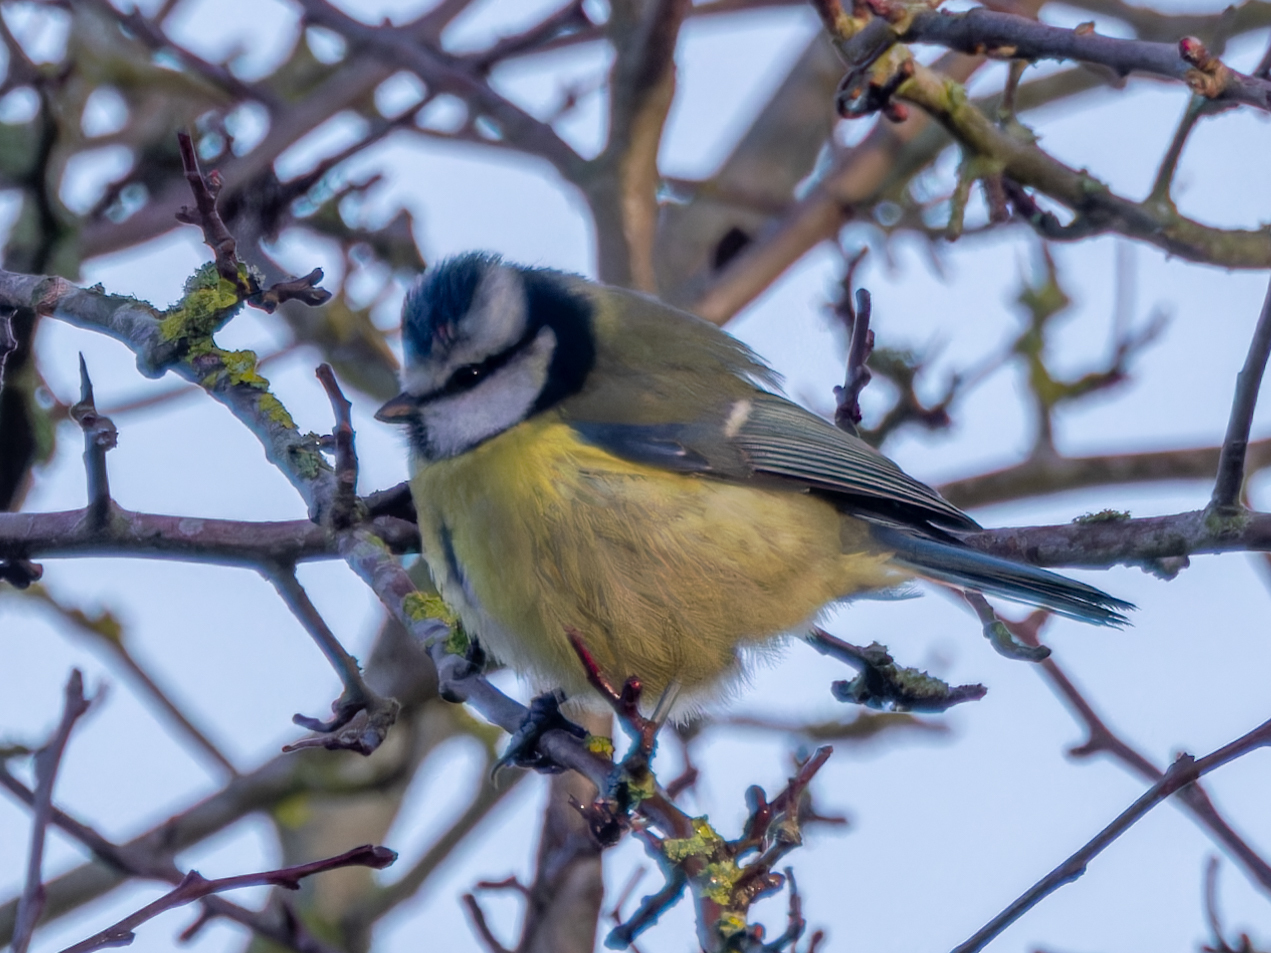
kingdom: Animalia
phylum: Chordata
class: Aves
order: Passeriformes
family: Paridae
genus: Cyanistes
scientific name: Cyanistes caeruleus
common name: Eurasian blue tit
